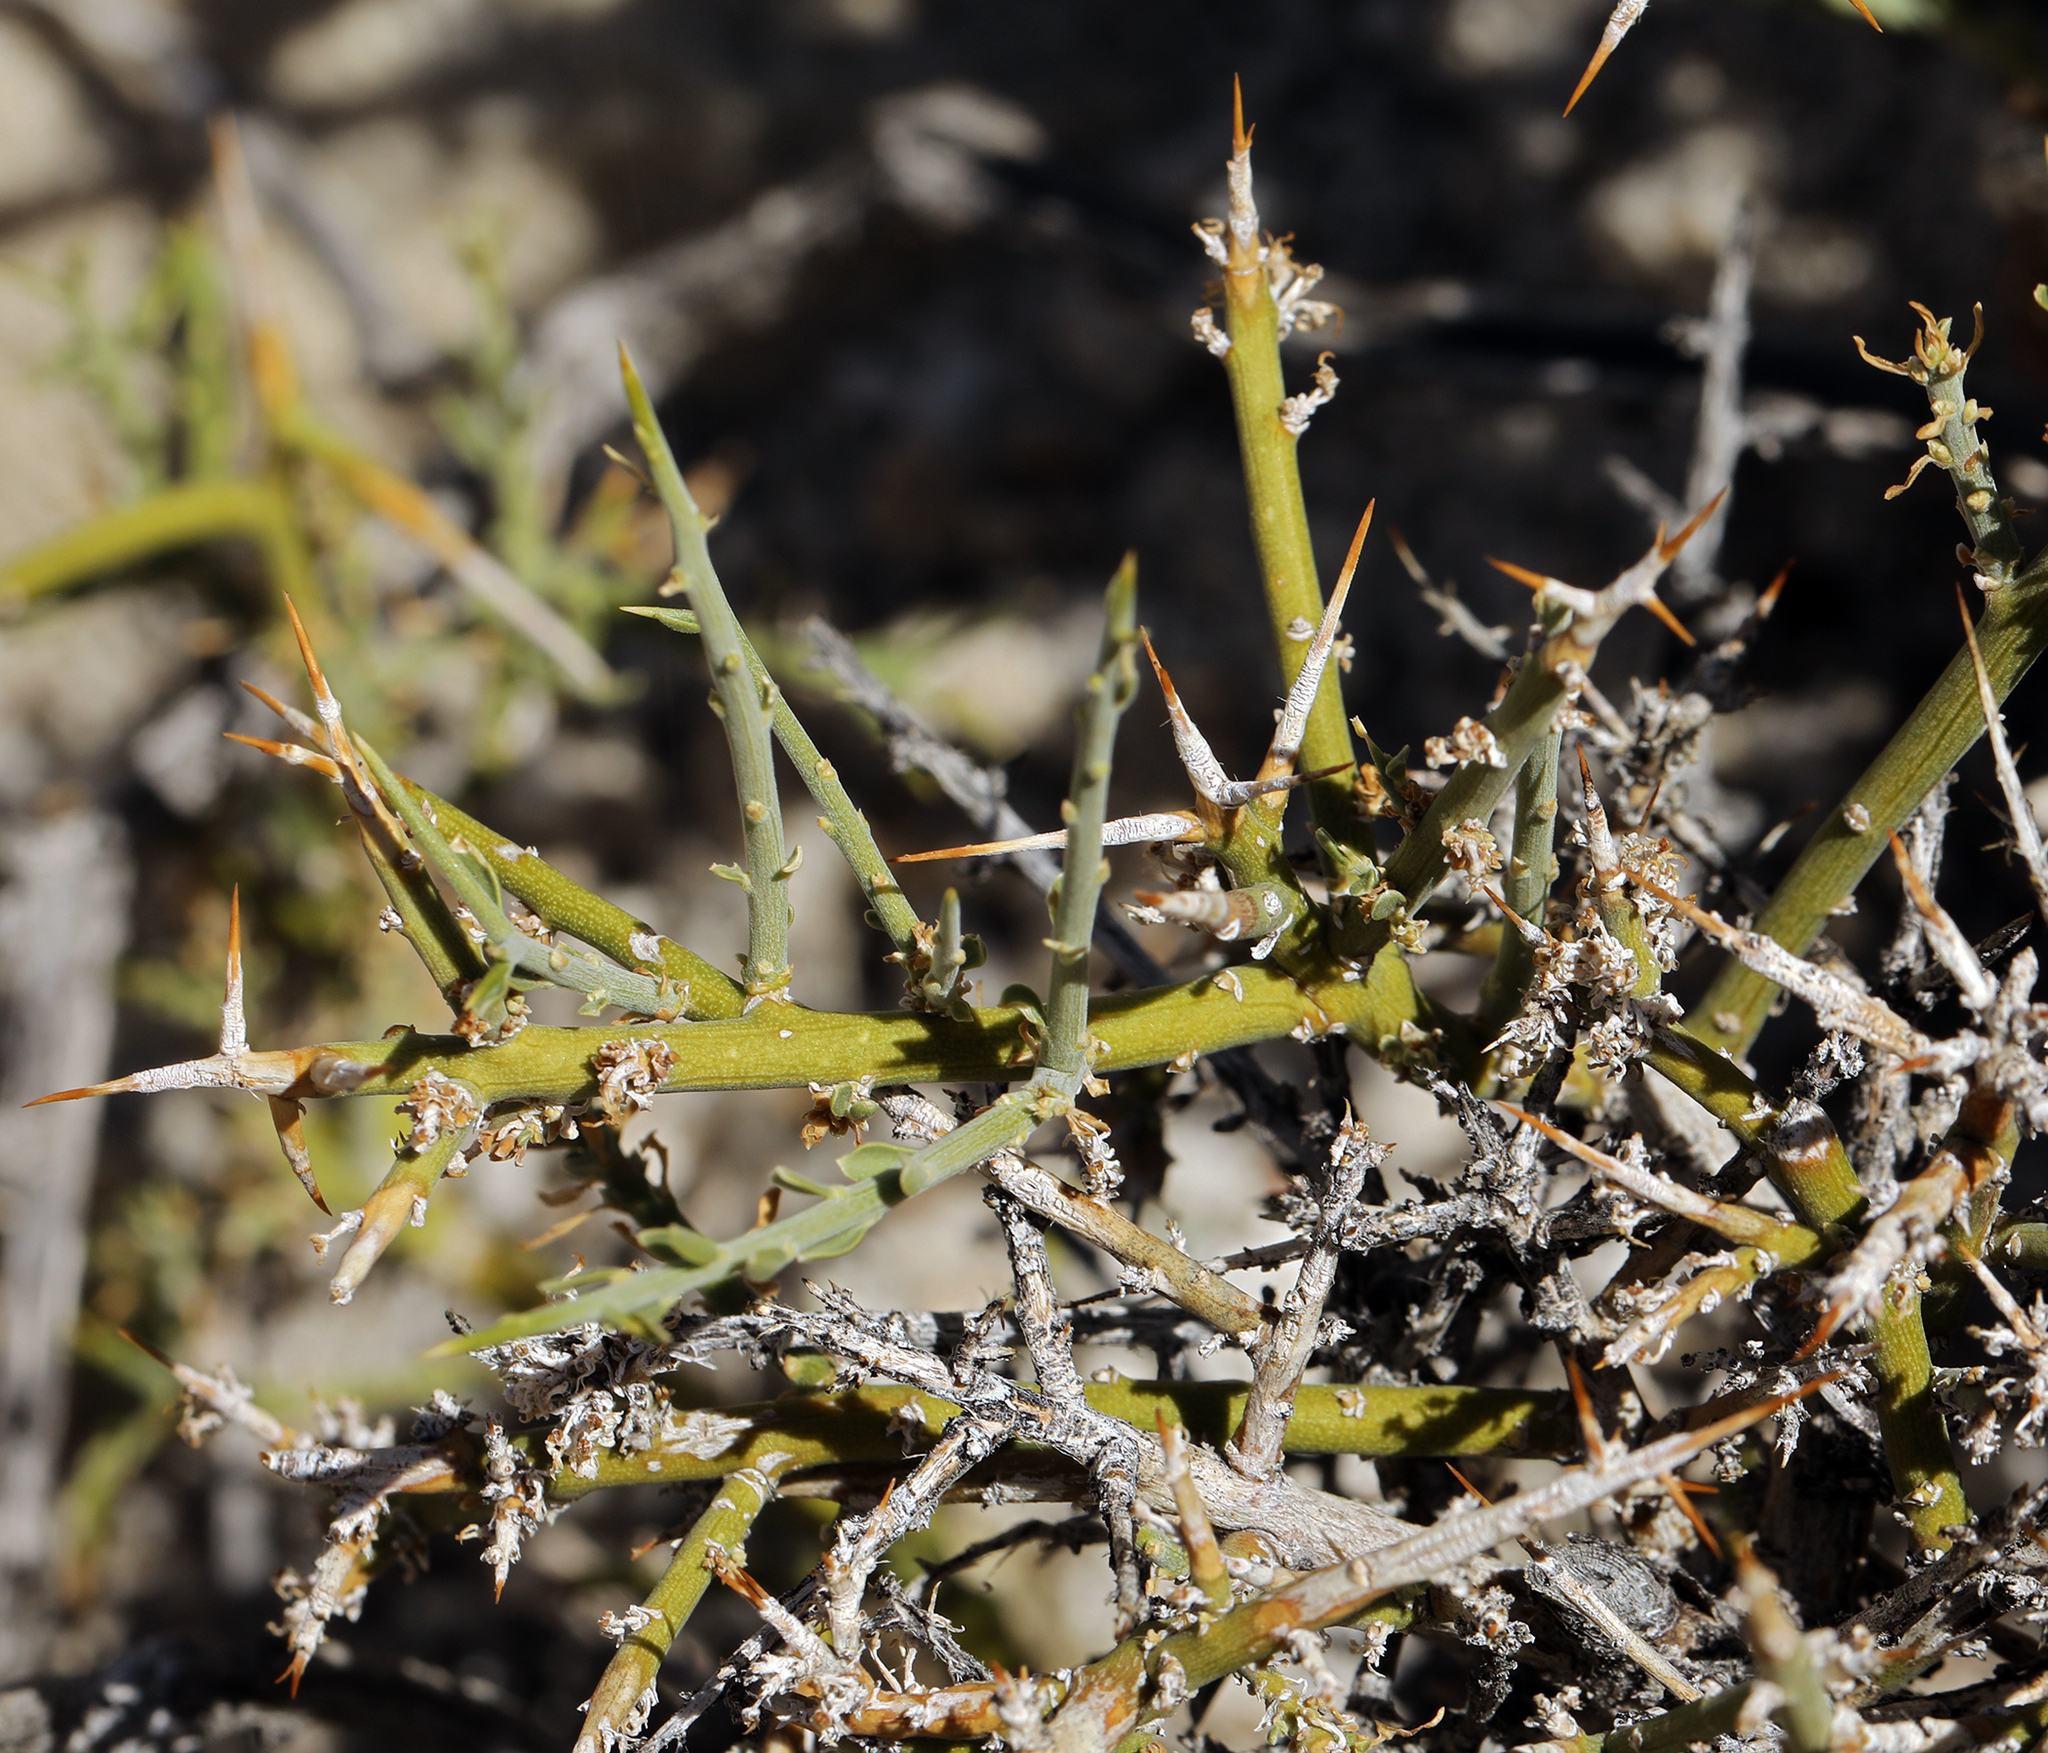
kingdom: Plantae
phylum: Tracheophyta
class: Magnoliopsida
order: Lamiales
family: Oleaceae
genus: Menodora
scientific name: Menodora spinescens
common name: Spiny menodora
